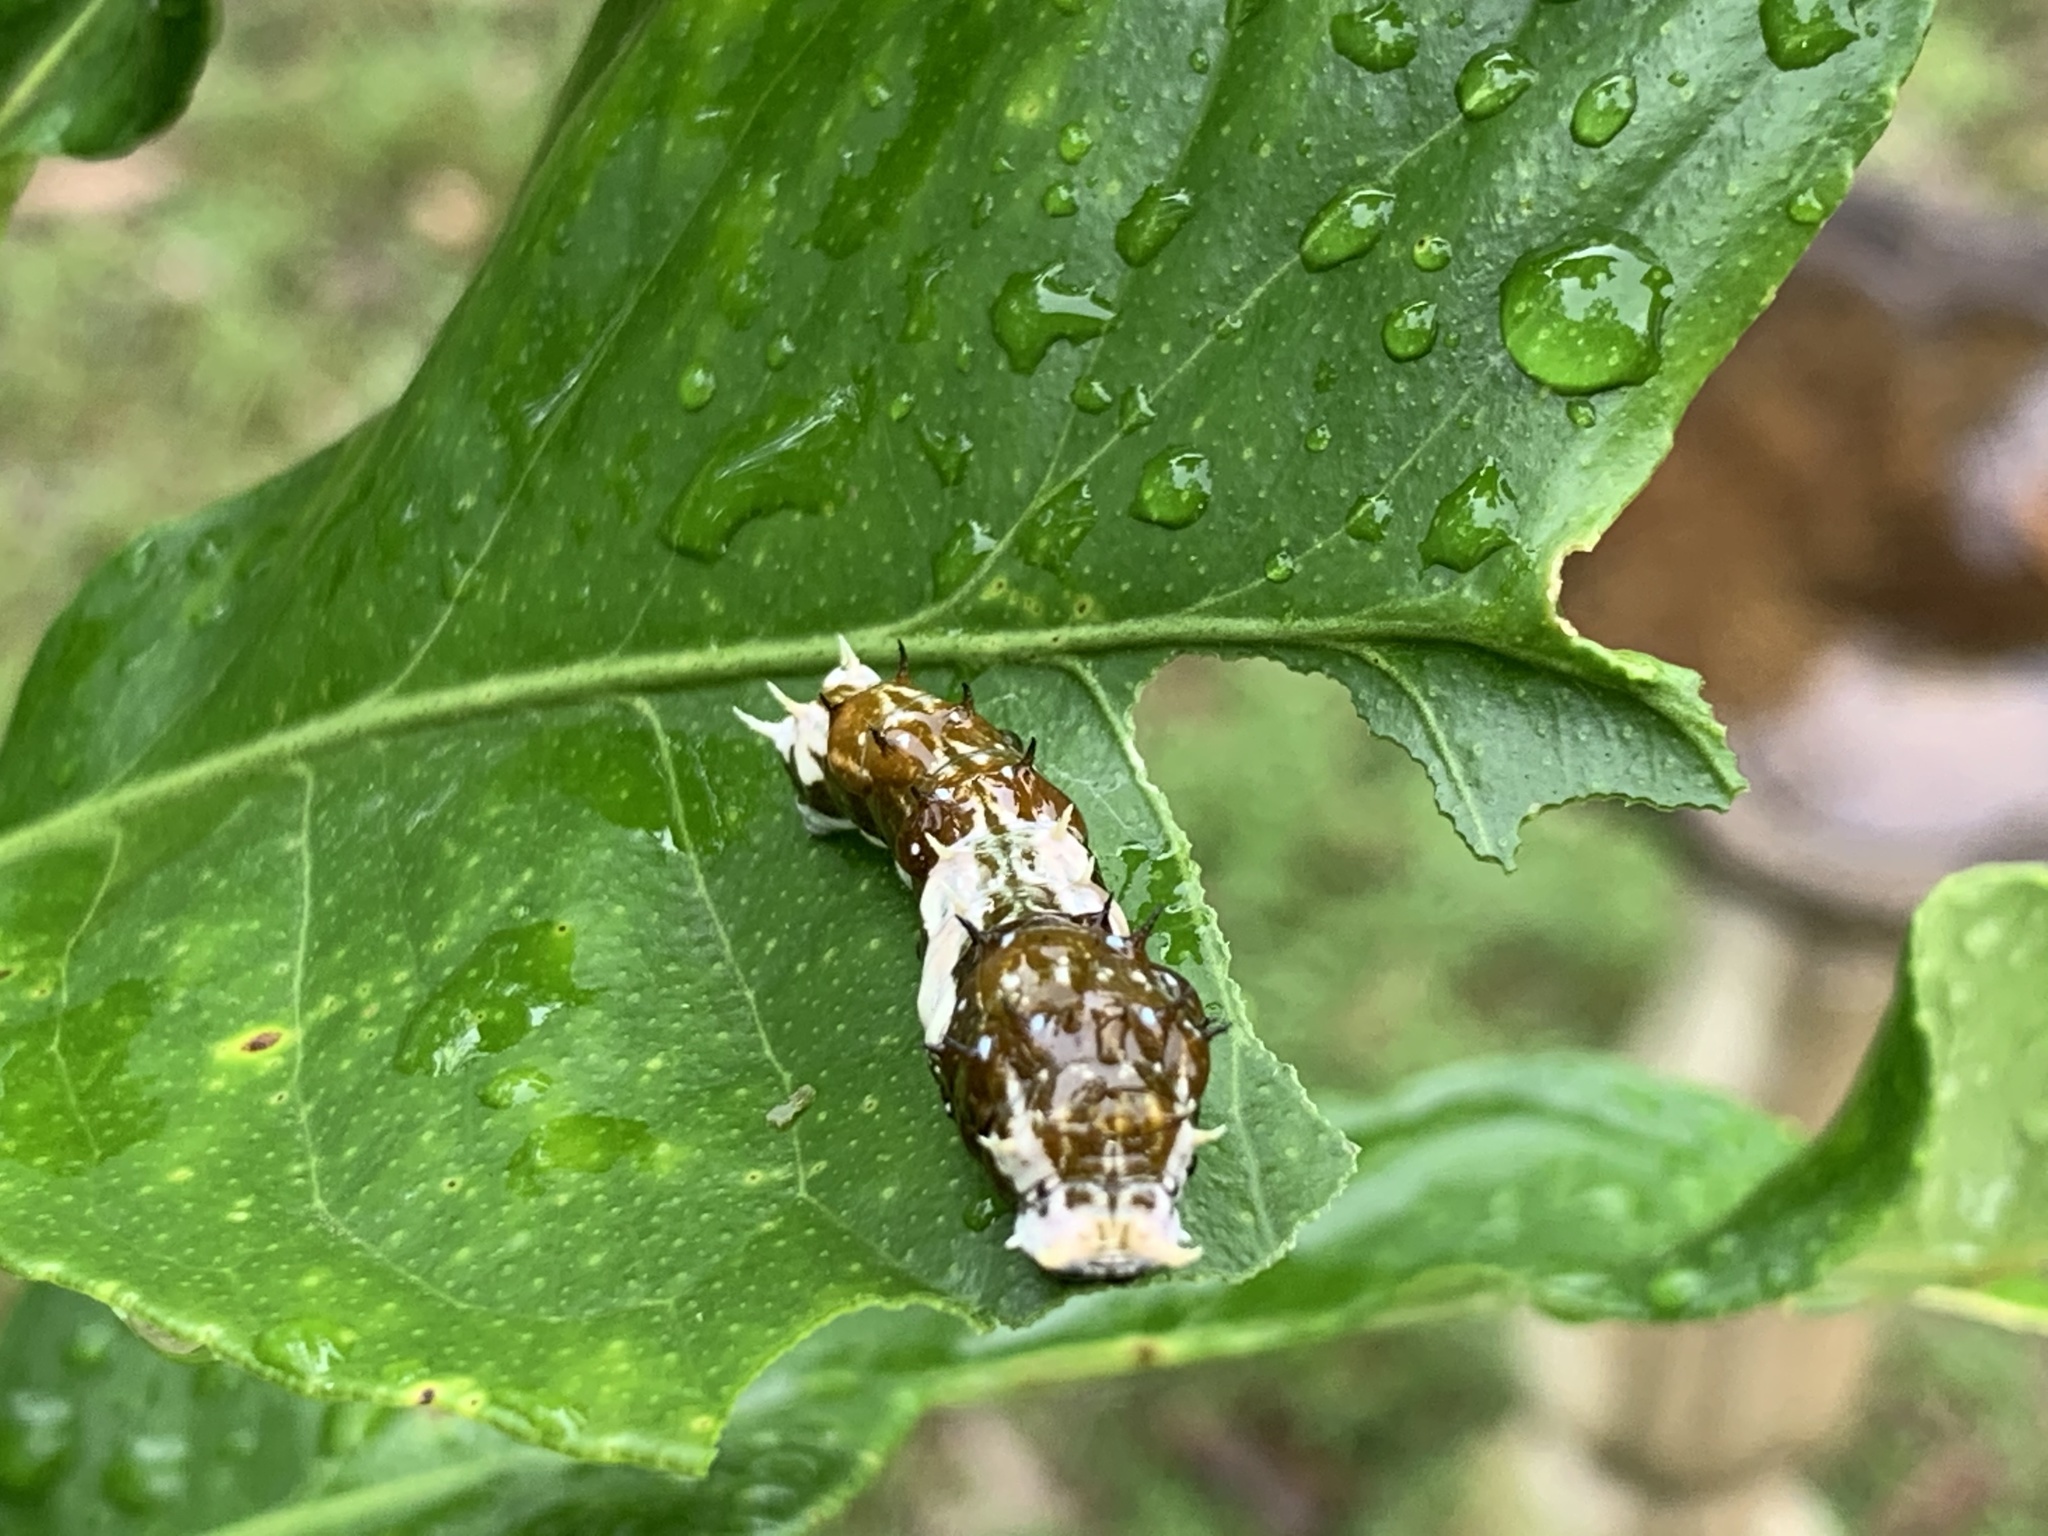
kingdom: Animalia
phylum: Arthropoda
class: Insecta
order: Lepidoptera
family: Papilionidae
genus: Papilio
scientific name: Papilio aegeus
